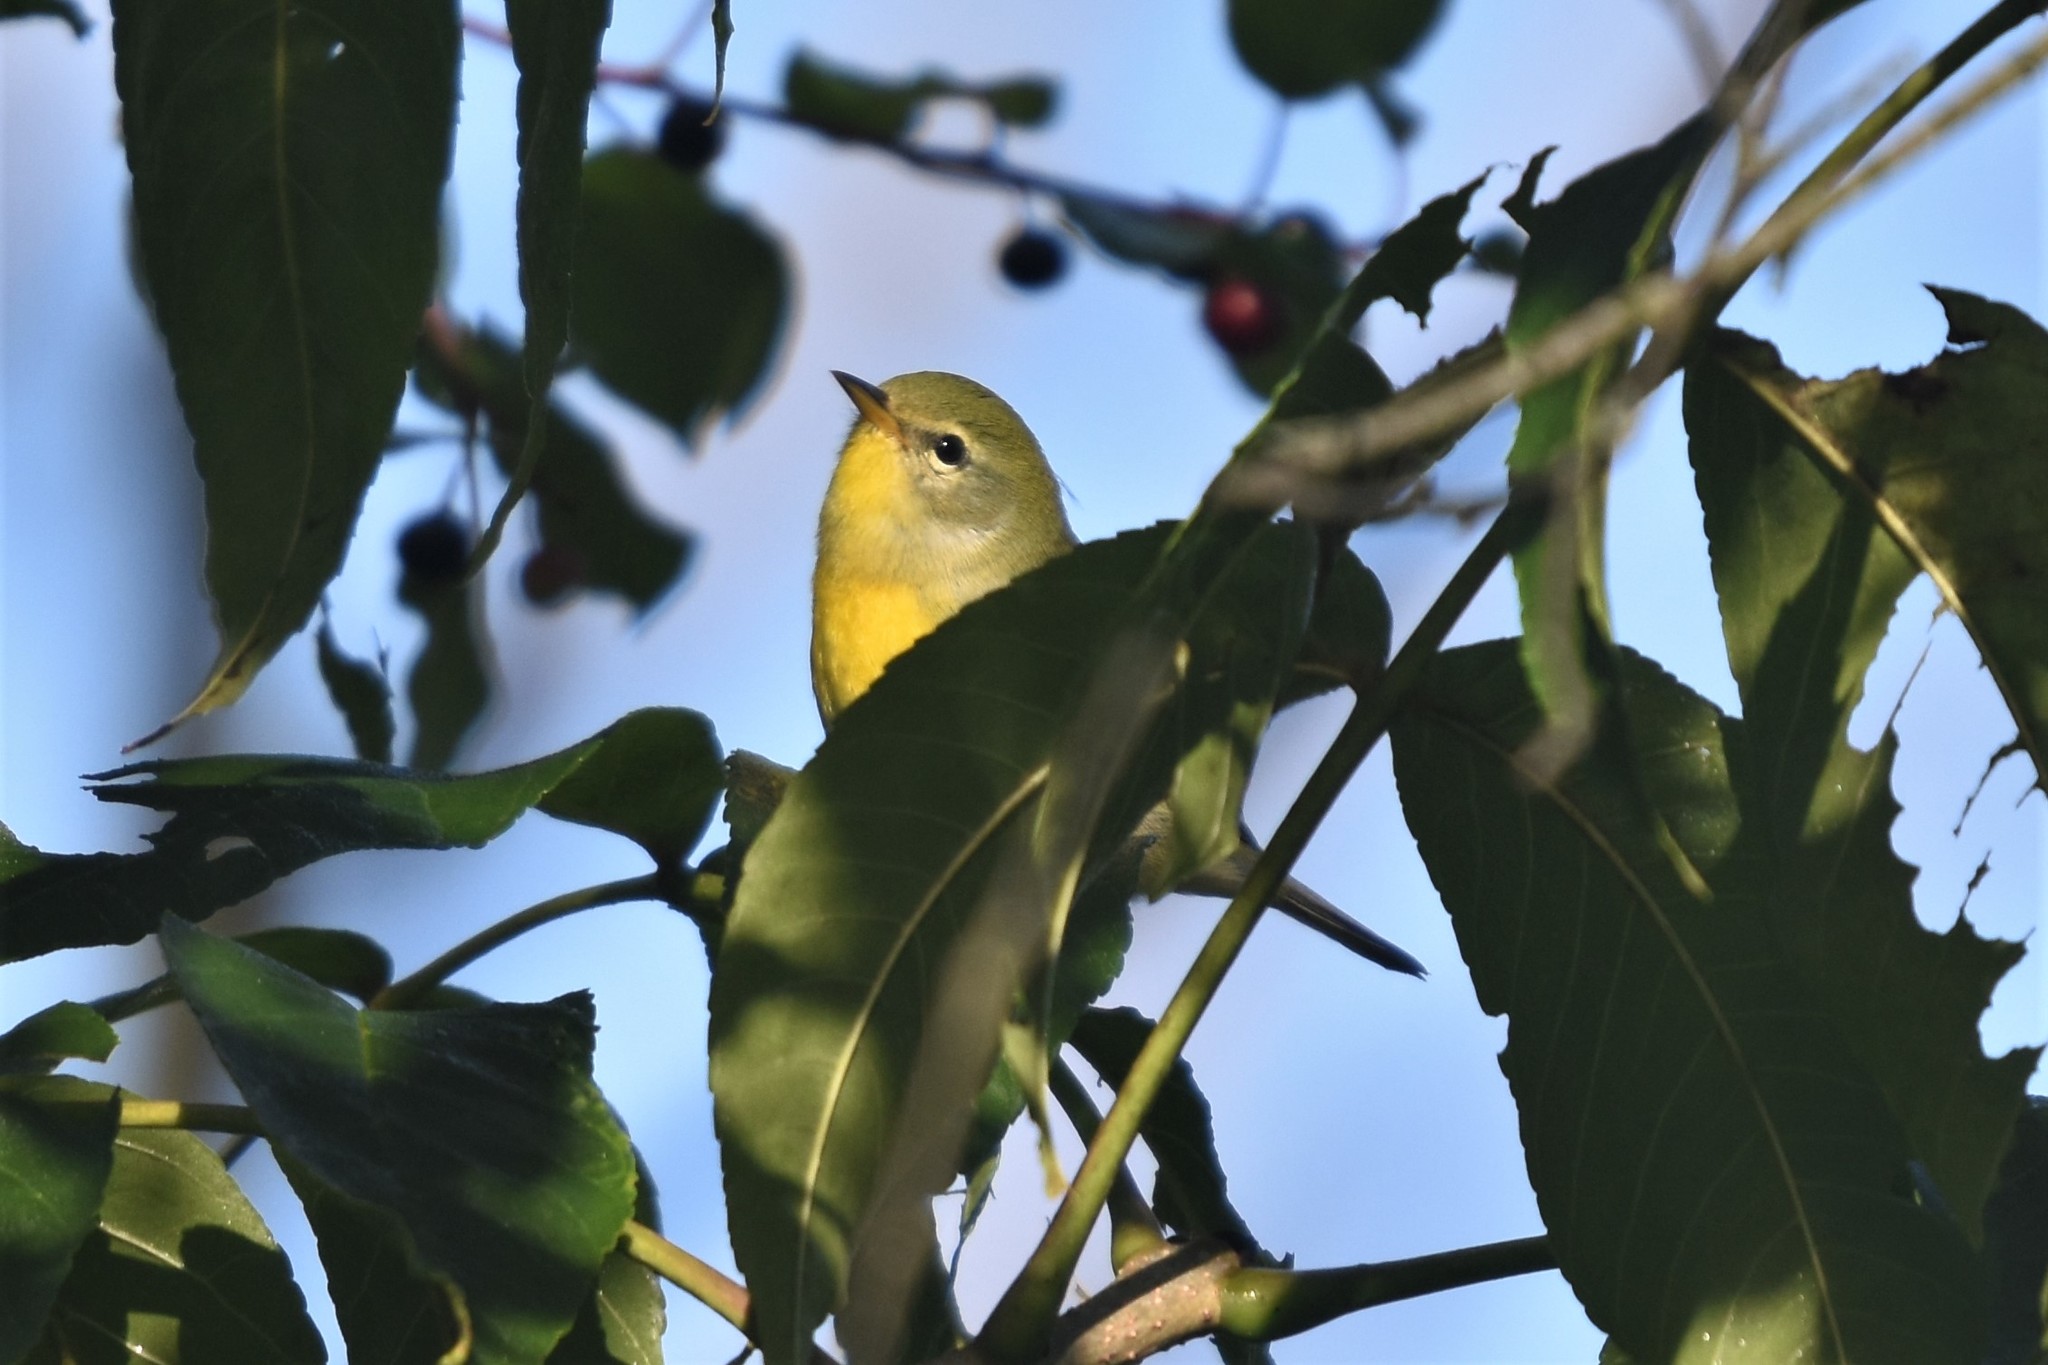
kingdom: Animalia
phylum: Chordata
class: Aves
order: Passeriformes
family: Parulidae
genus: Setophaga
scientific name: Setophaga americana
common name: Northern parula
